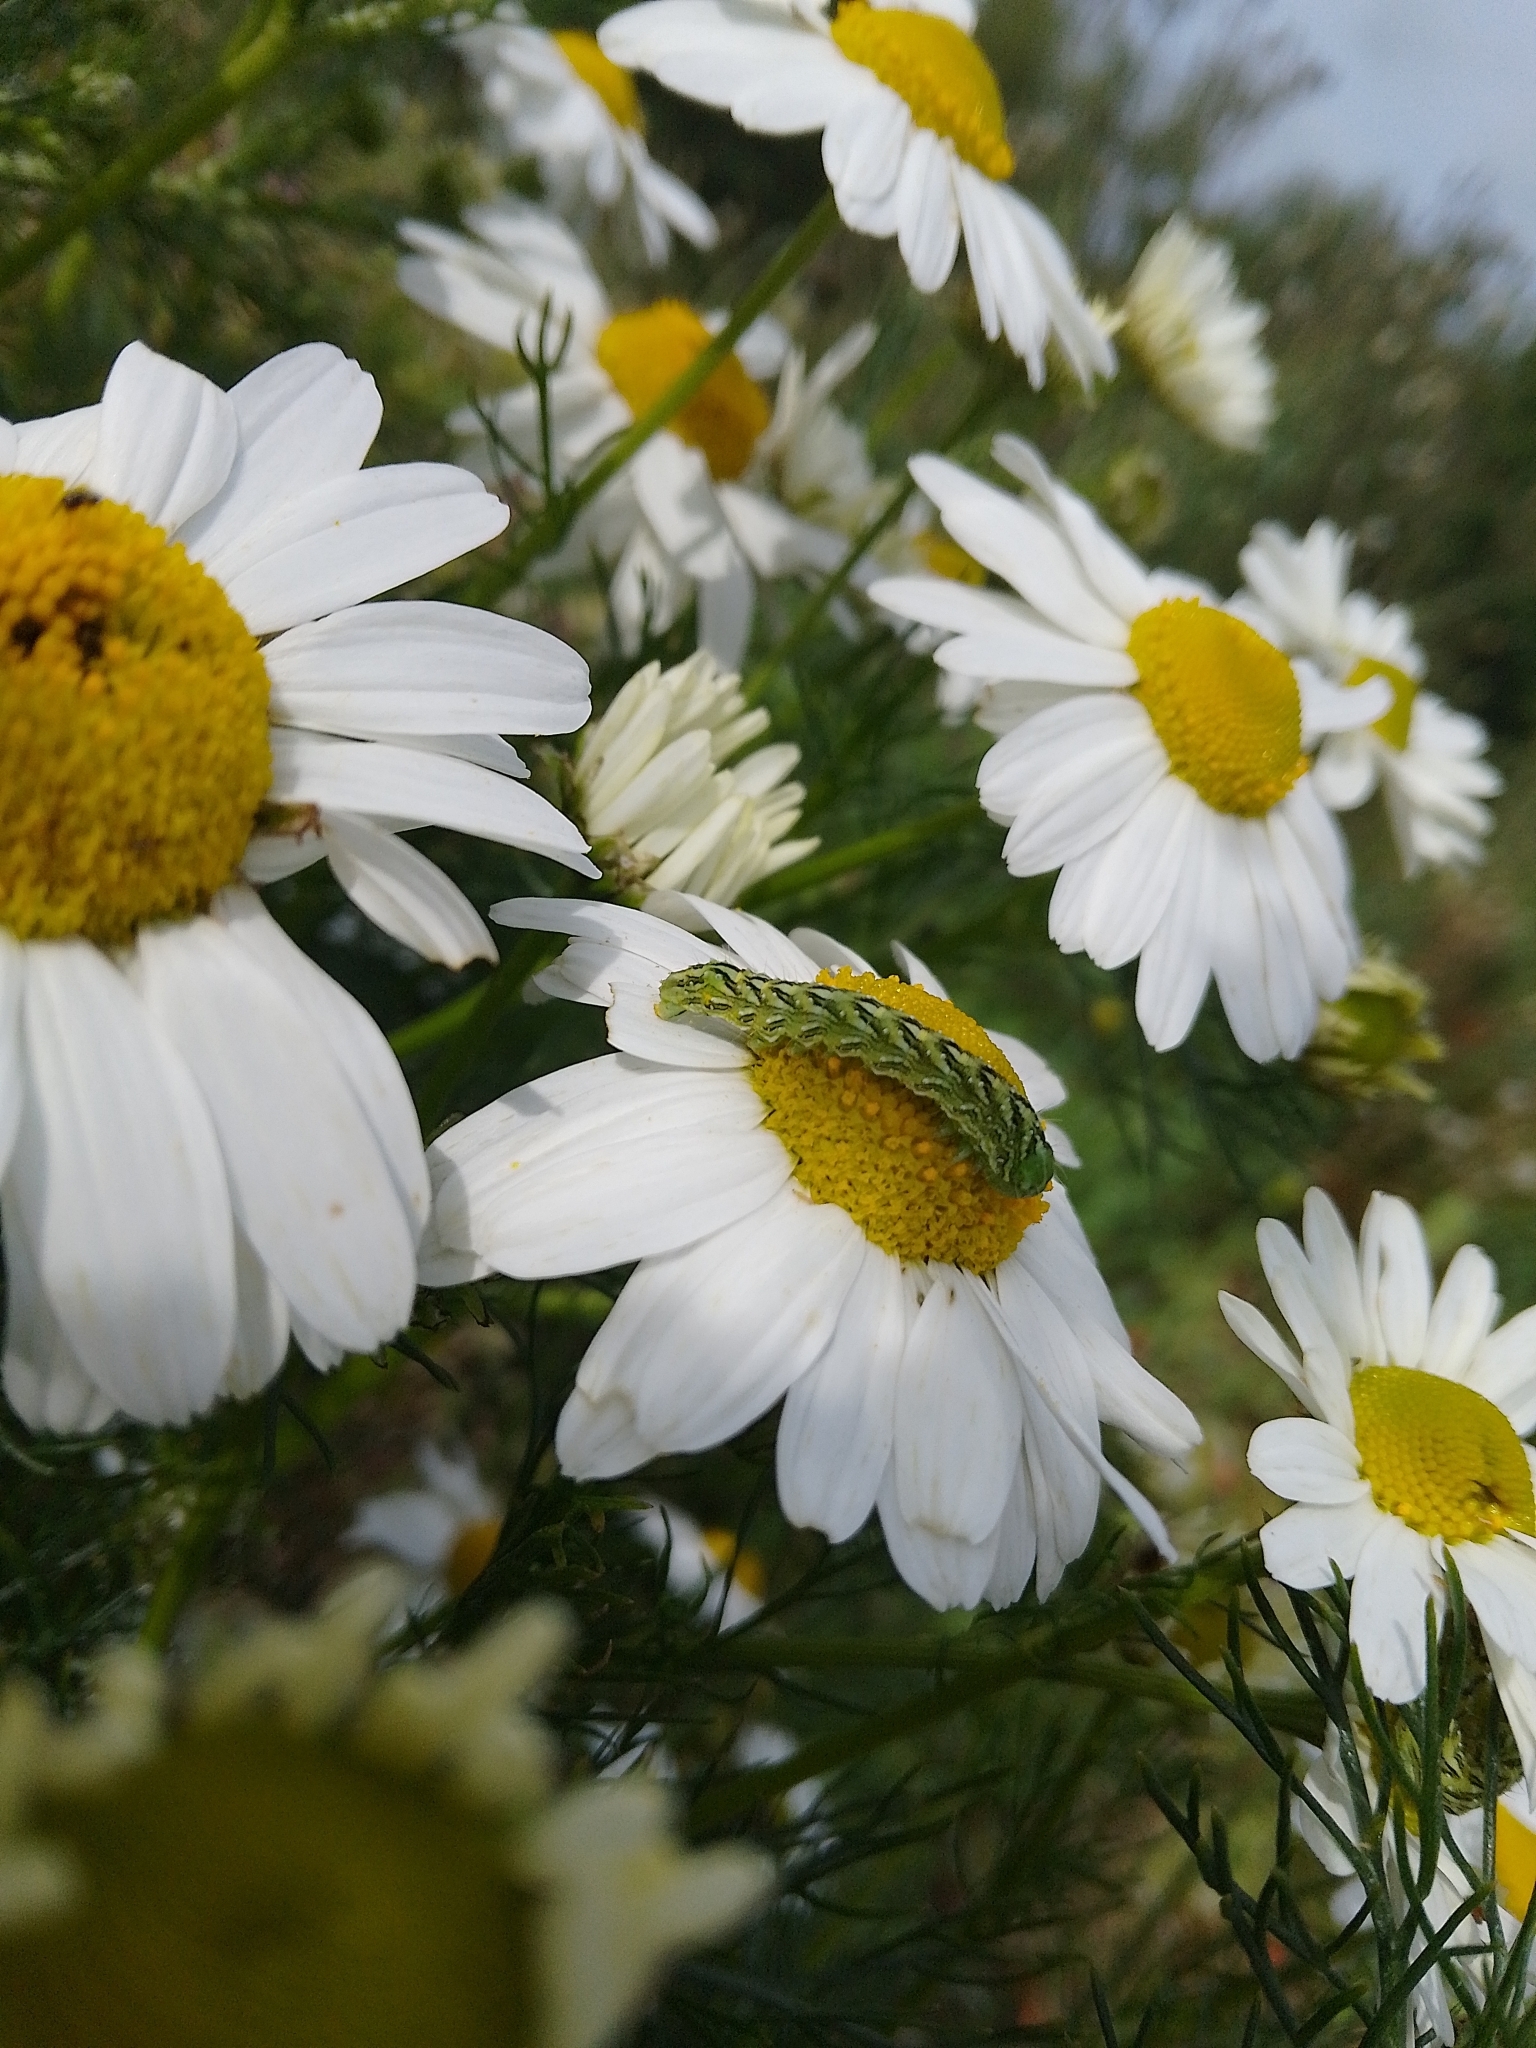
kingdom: Animalia
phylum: Arthropoda
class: Insecta
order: Lepidoptera
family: Noctuidae
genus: Cucullia
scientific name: Cucullia chamomillae
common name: Chamomile shark
